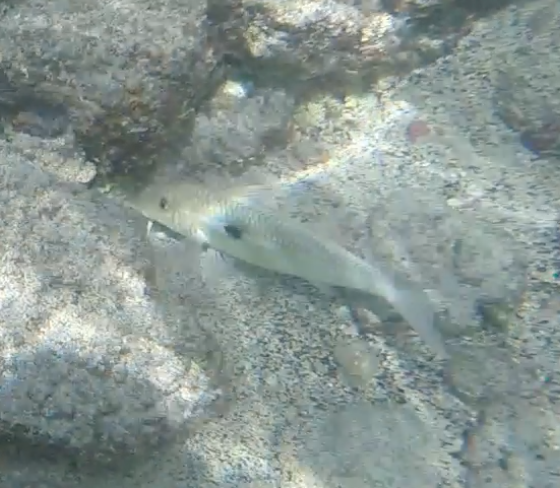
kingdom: Animalia
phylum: Chordata
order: Perciformes
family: Mullidae
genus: Mulloidichthys
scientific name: Mulloidichthys flavolineatus
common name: Yellowstripe goatfish
